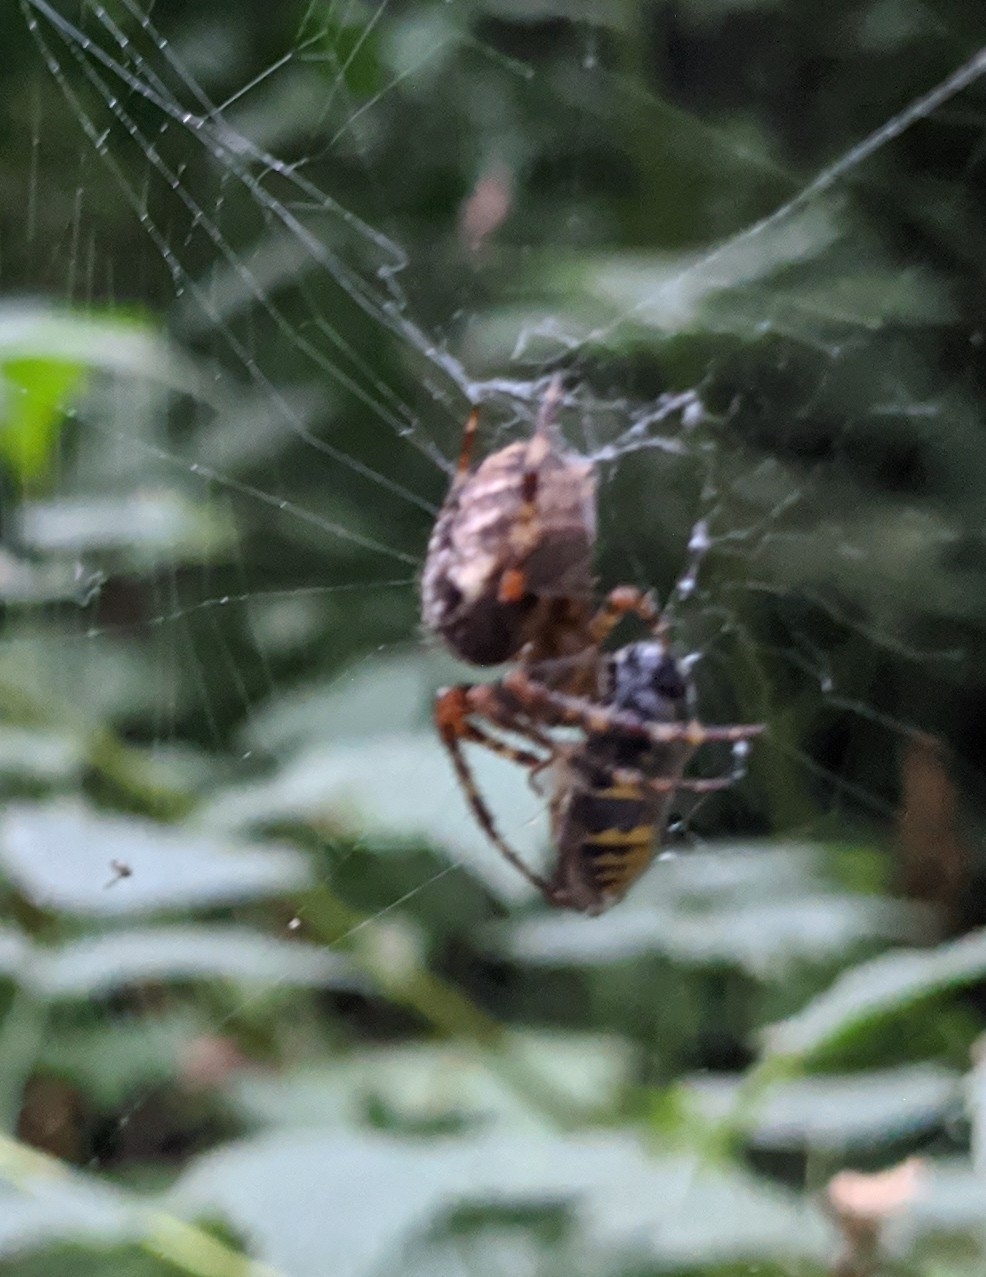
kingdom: Animalia
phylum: Arthropoda
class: Arachnida
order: Araneae
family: Araneidae
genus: Araneus
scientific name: Araneus diadematus
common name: Cross orbweaver
